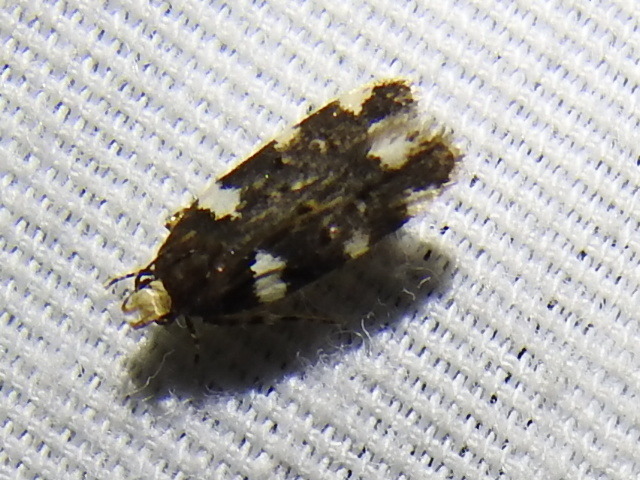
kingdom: Animalia
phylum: Arthropoda
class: Insecta
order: Lepidoptera
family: Gelechiidae
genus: Fascista
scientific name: Fascista cercerisella
